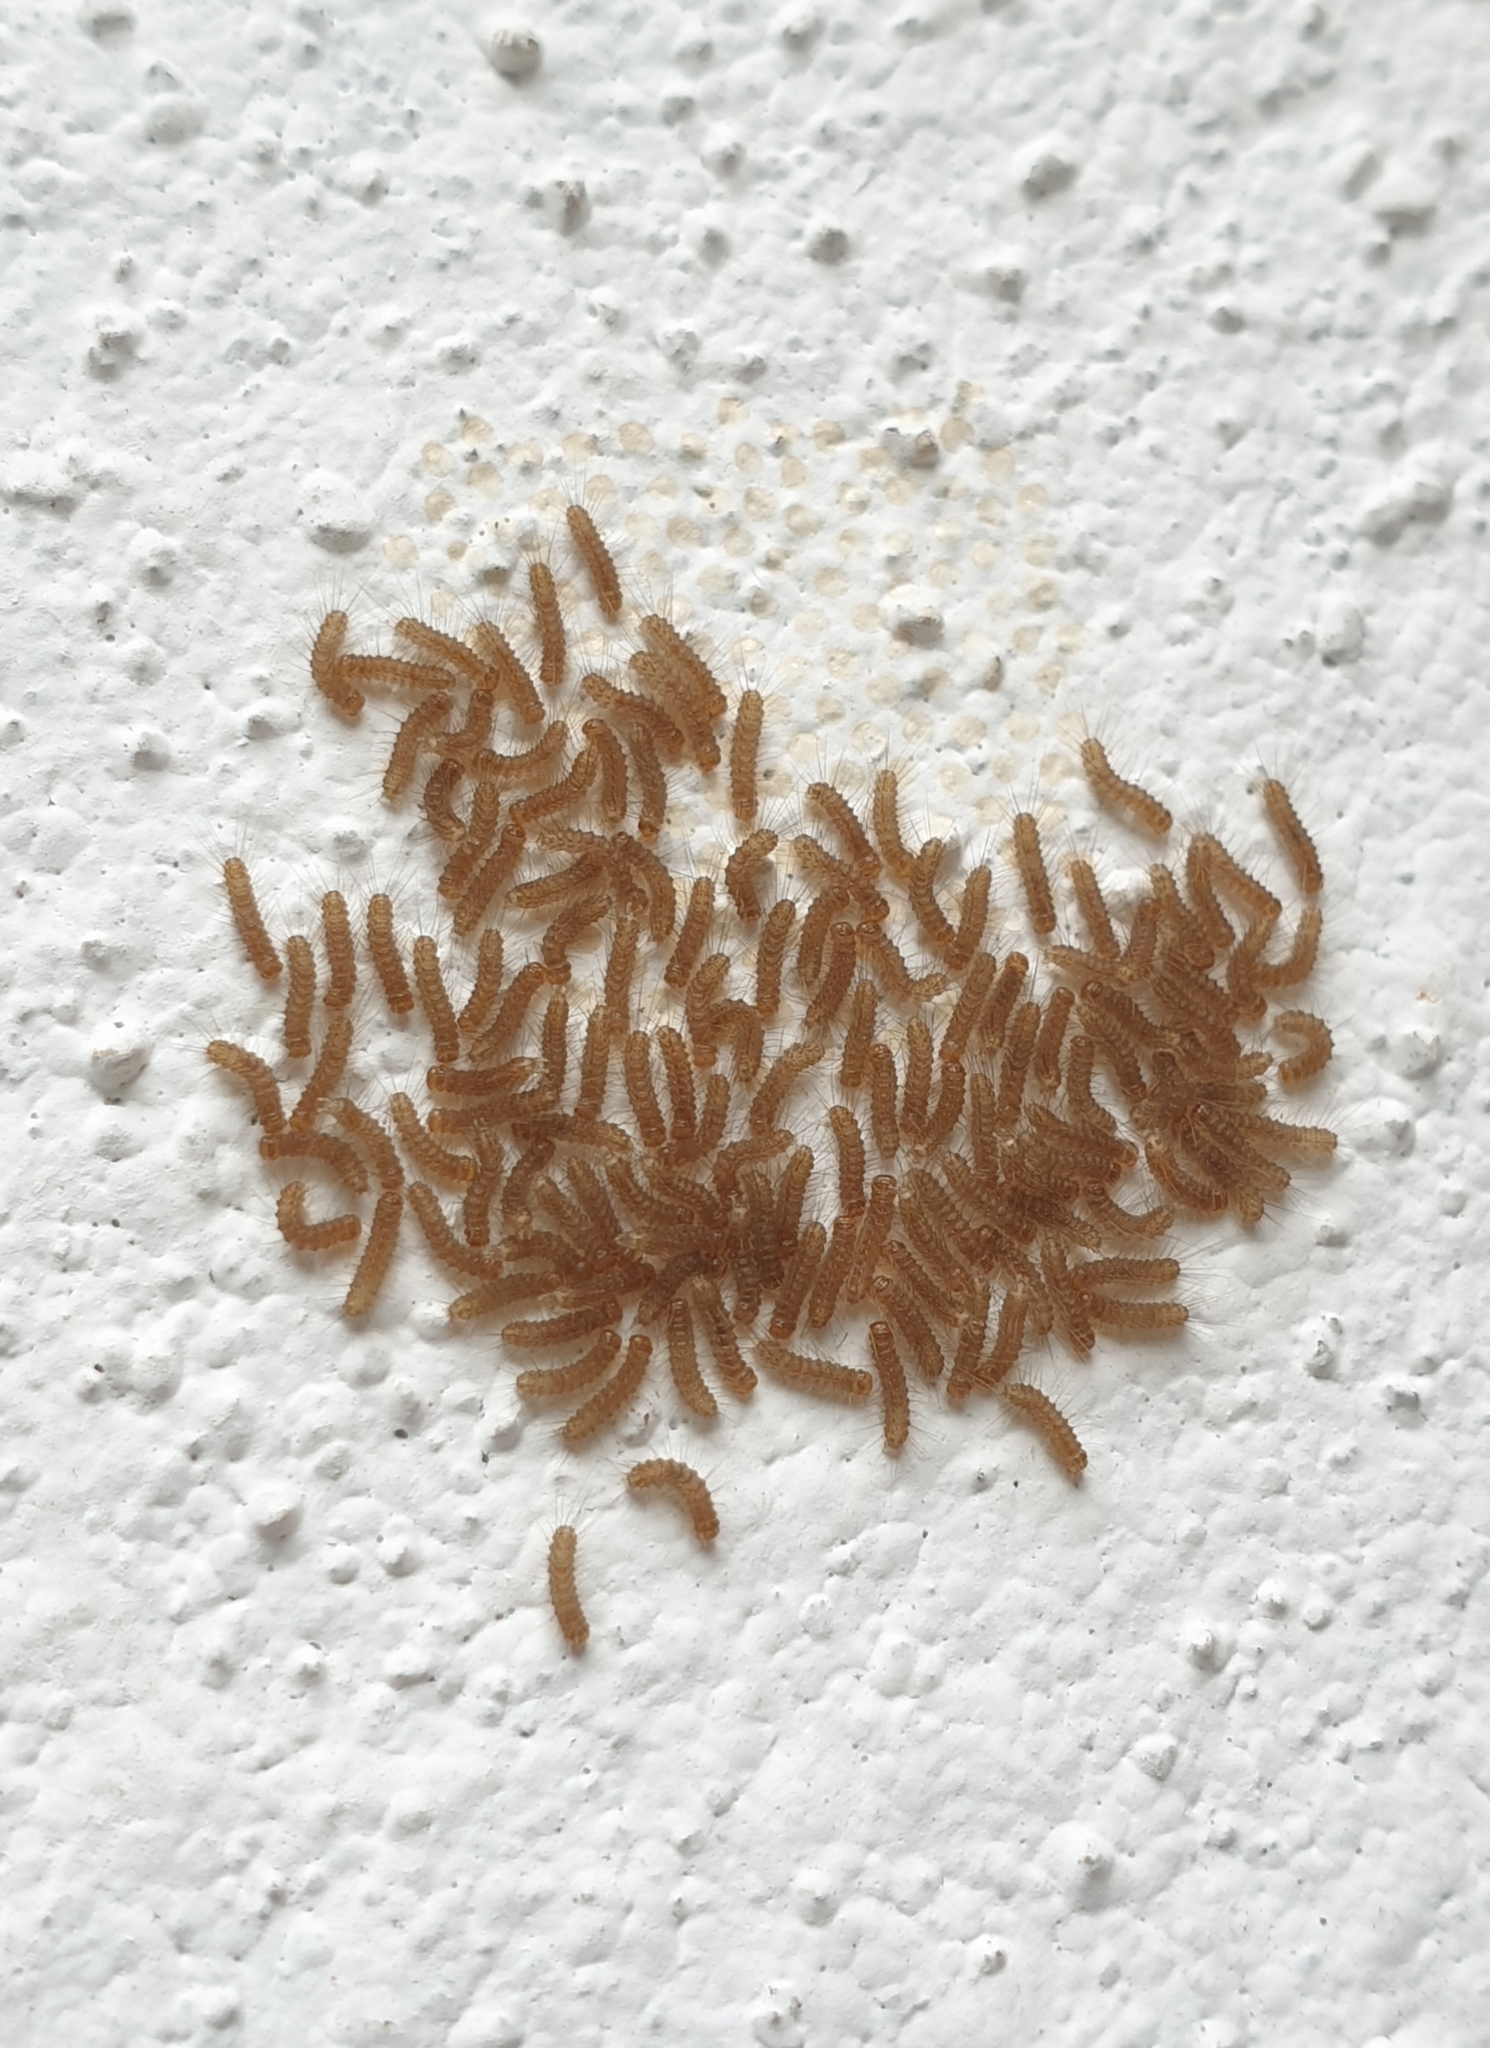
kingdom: Animalia
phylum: Arthropoda
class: Insecta
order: Lepidoptera
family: Erebidae
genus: Amata
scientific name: Amata passalis
